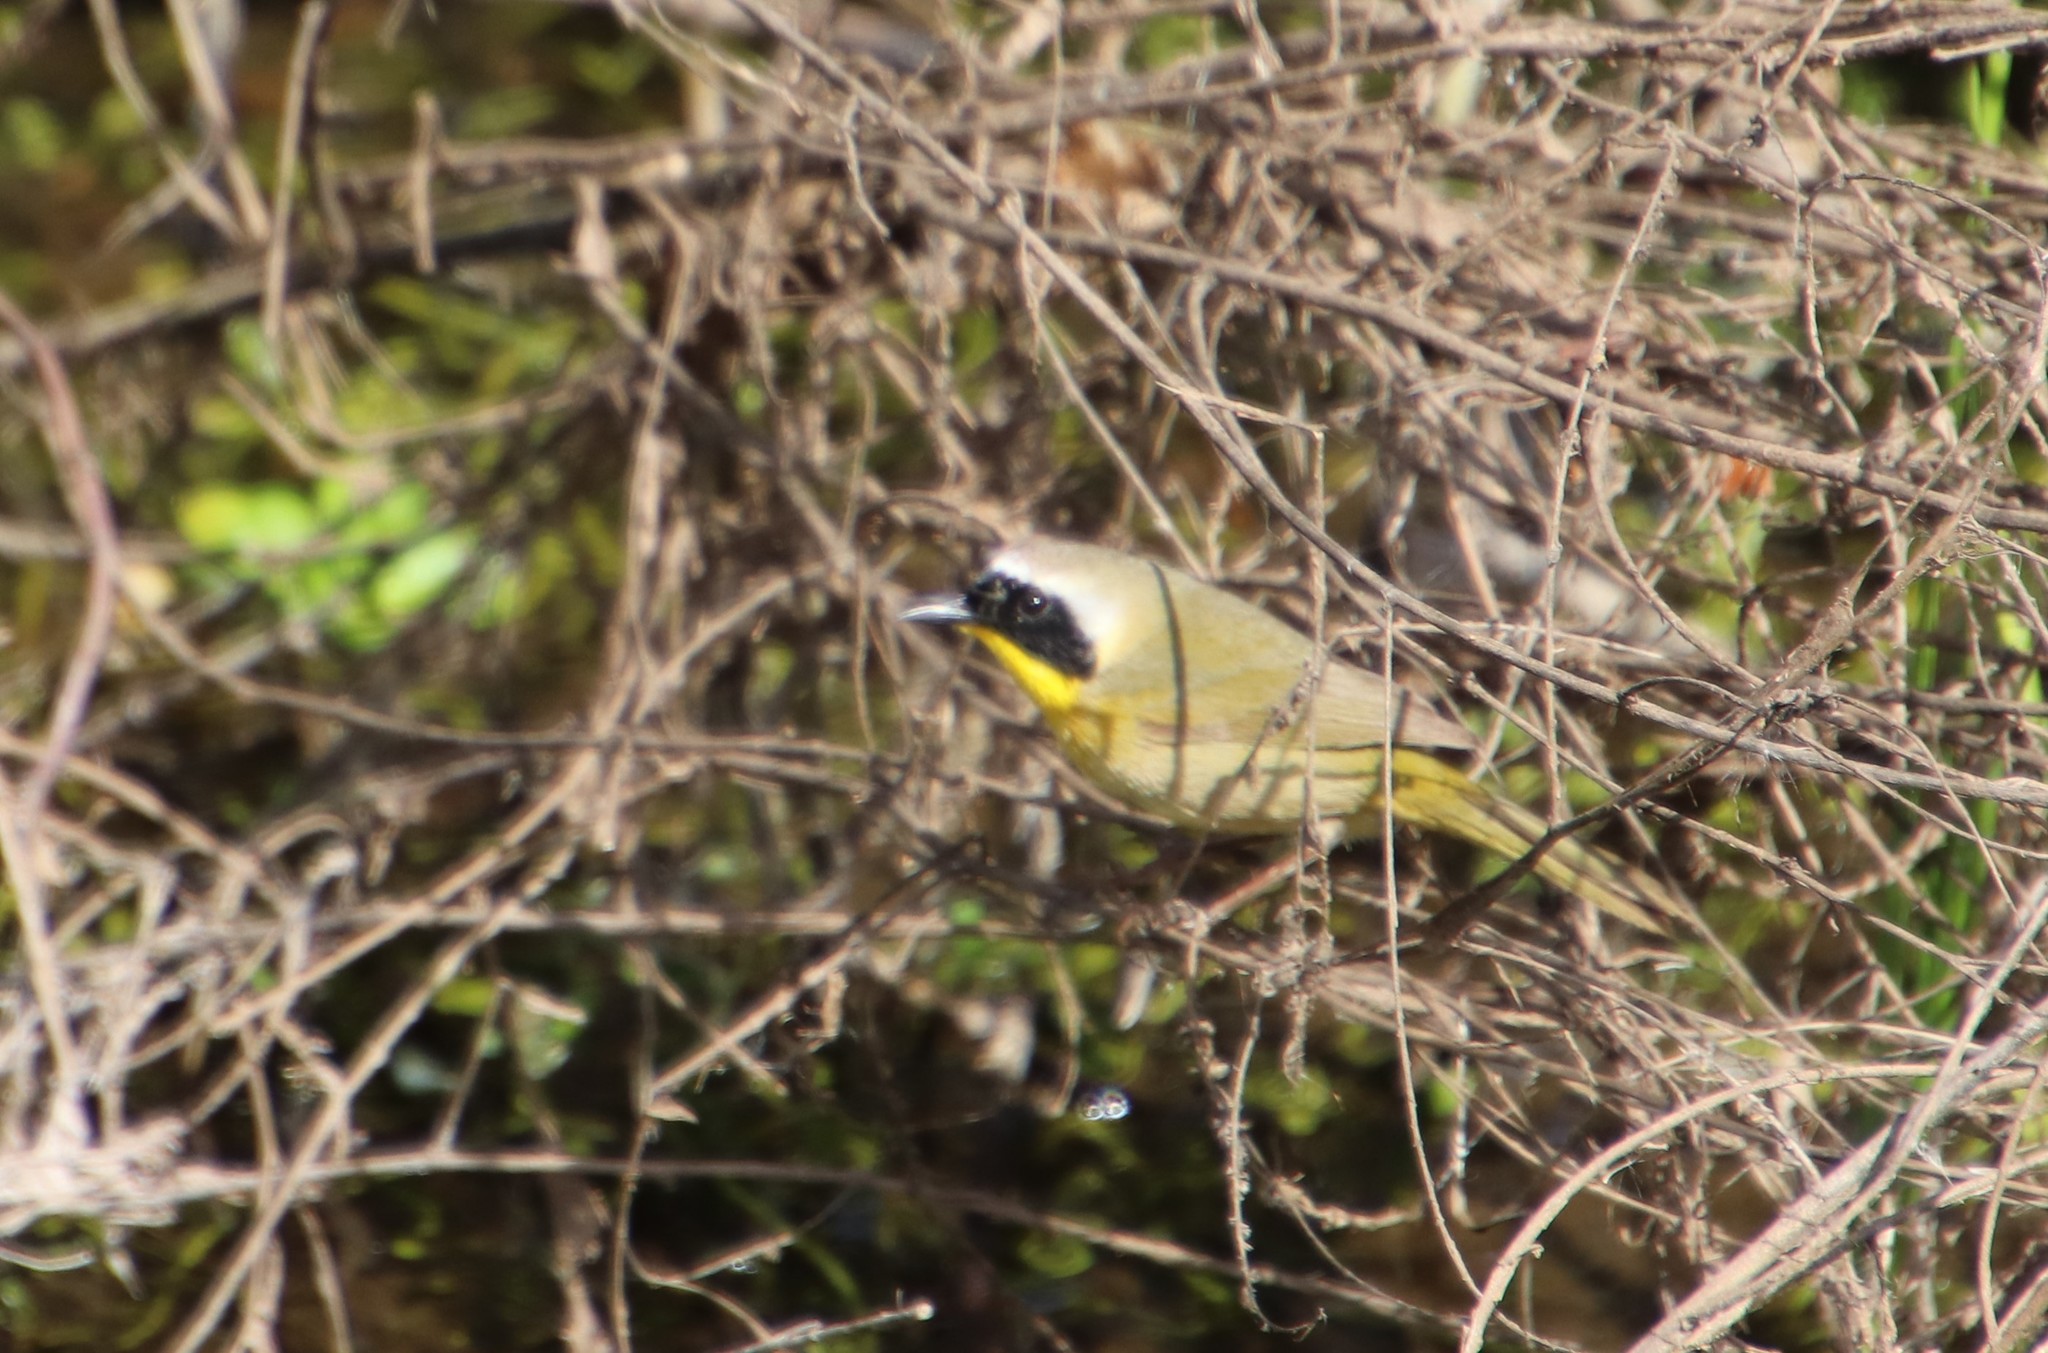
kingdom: Animalia
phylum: Chordata
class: Aves
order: Passeriformes
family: Parulidae
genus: Geothlypis
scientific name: Geothlypis trichas
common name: Common yellowthroat
